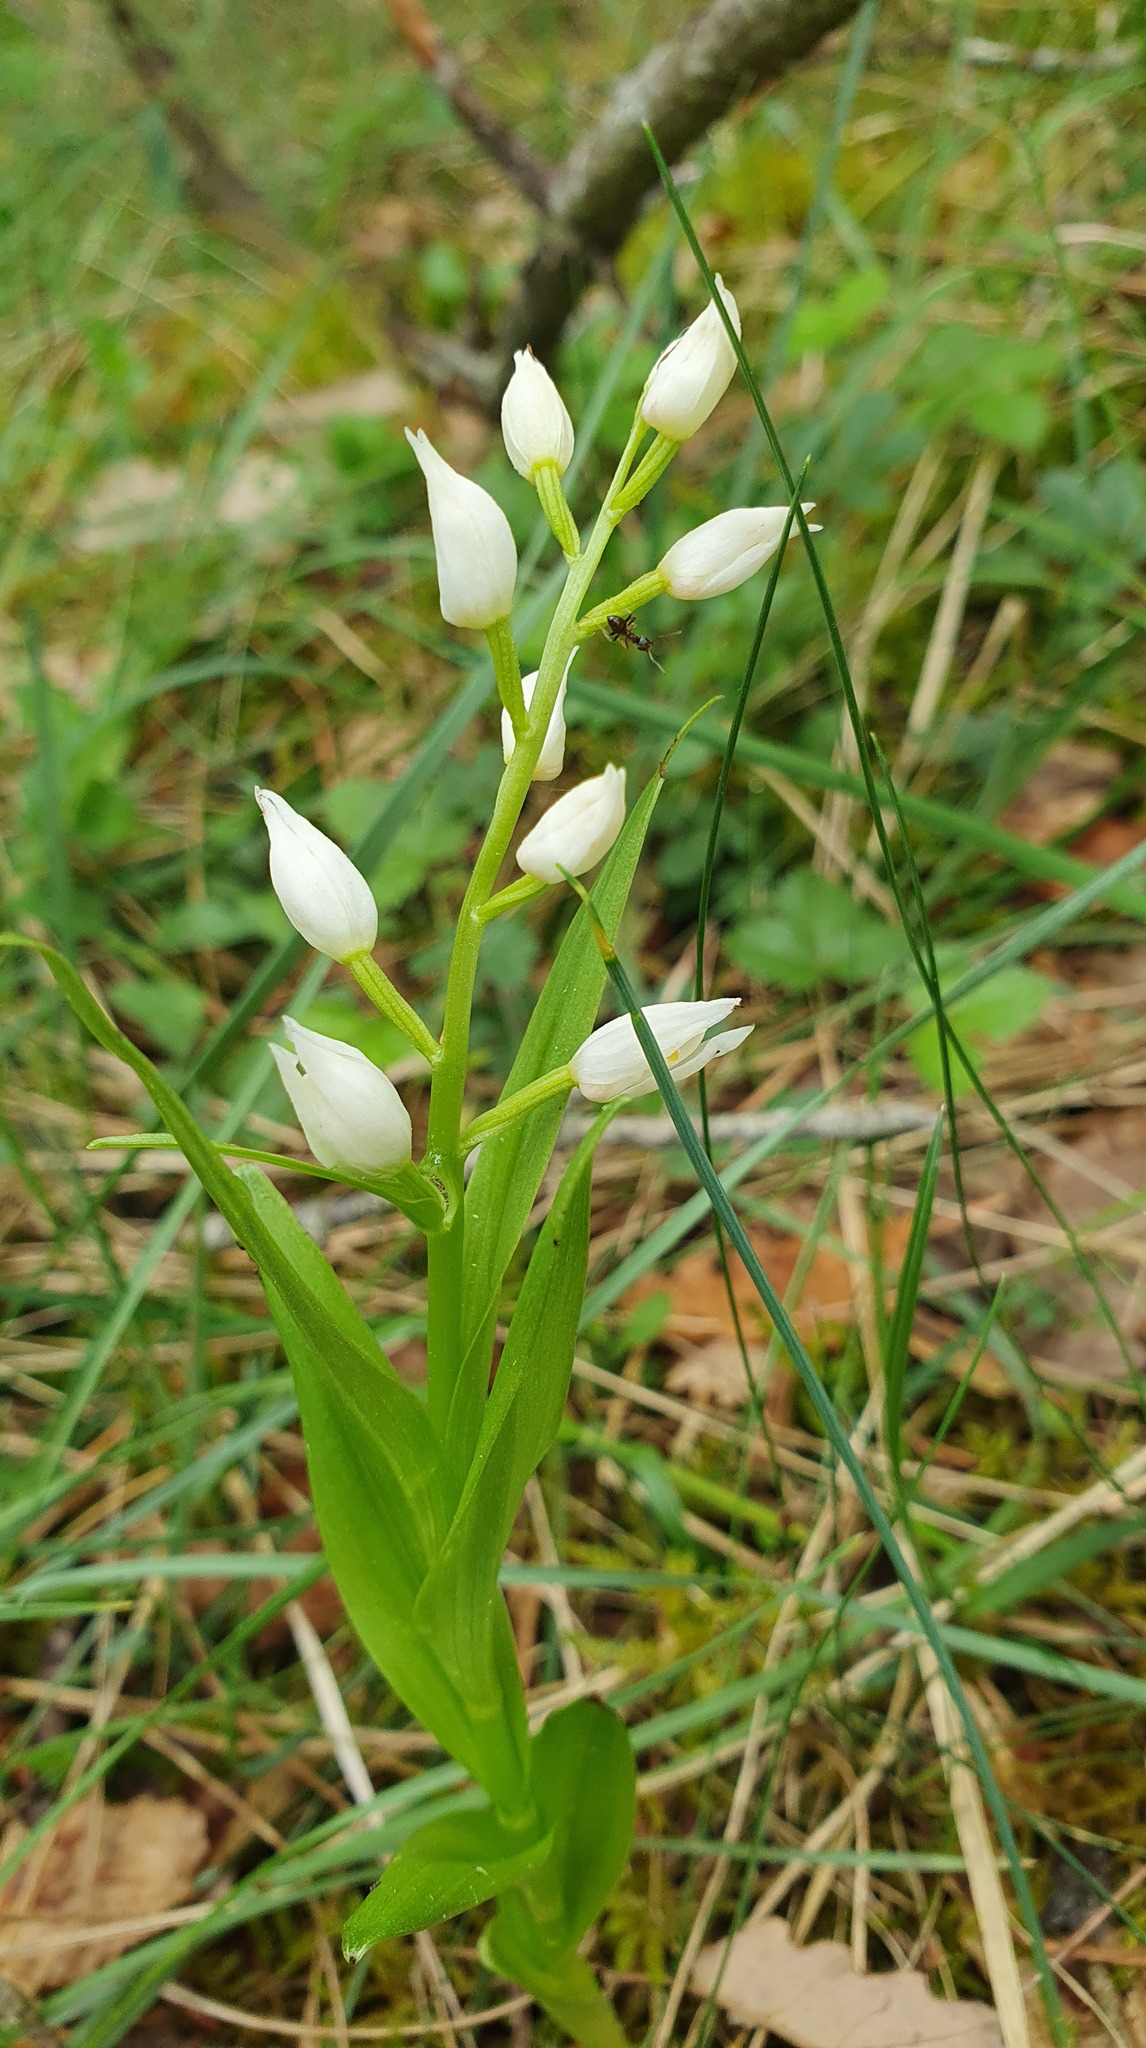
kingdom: Plantae
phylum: Tracheophyta
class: Liliopsida
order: Asparagales
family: Orchidaceae
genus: Cephalanthera
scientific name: Cephalanthera longifolia
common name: Narrow-leaved helleborine
